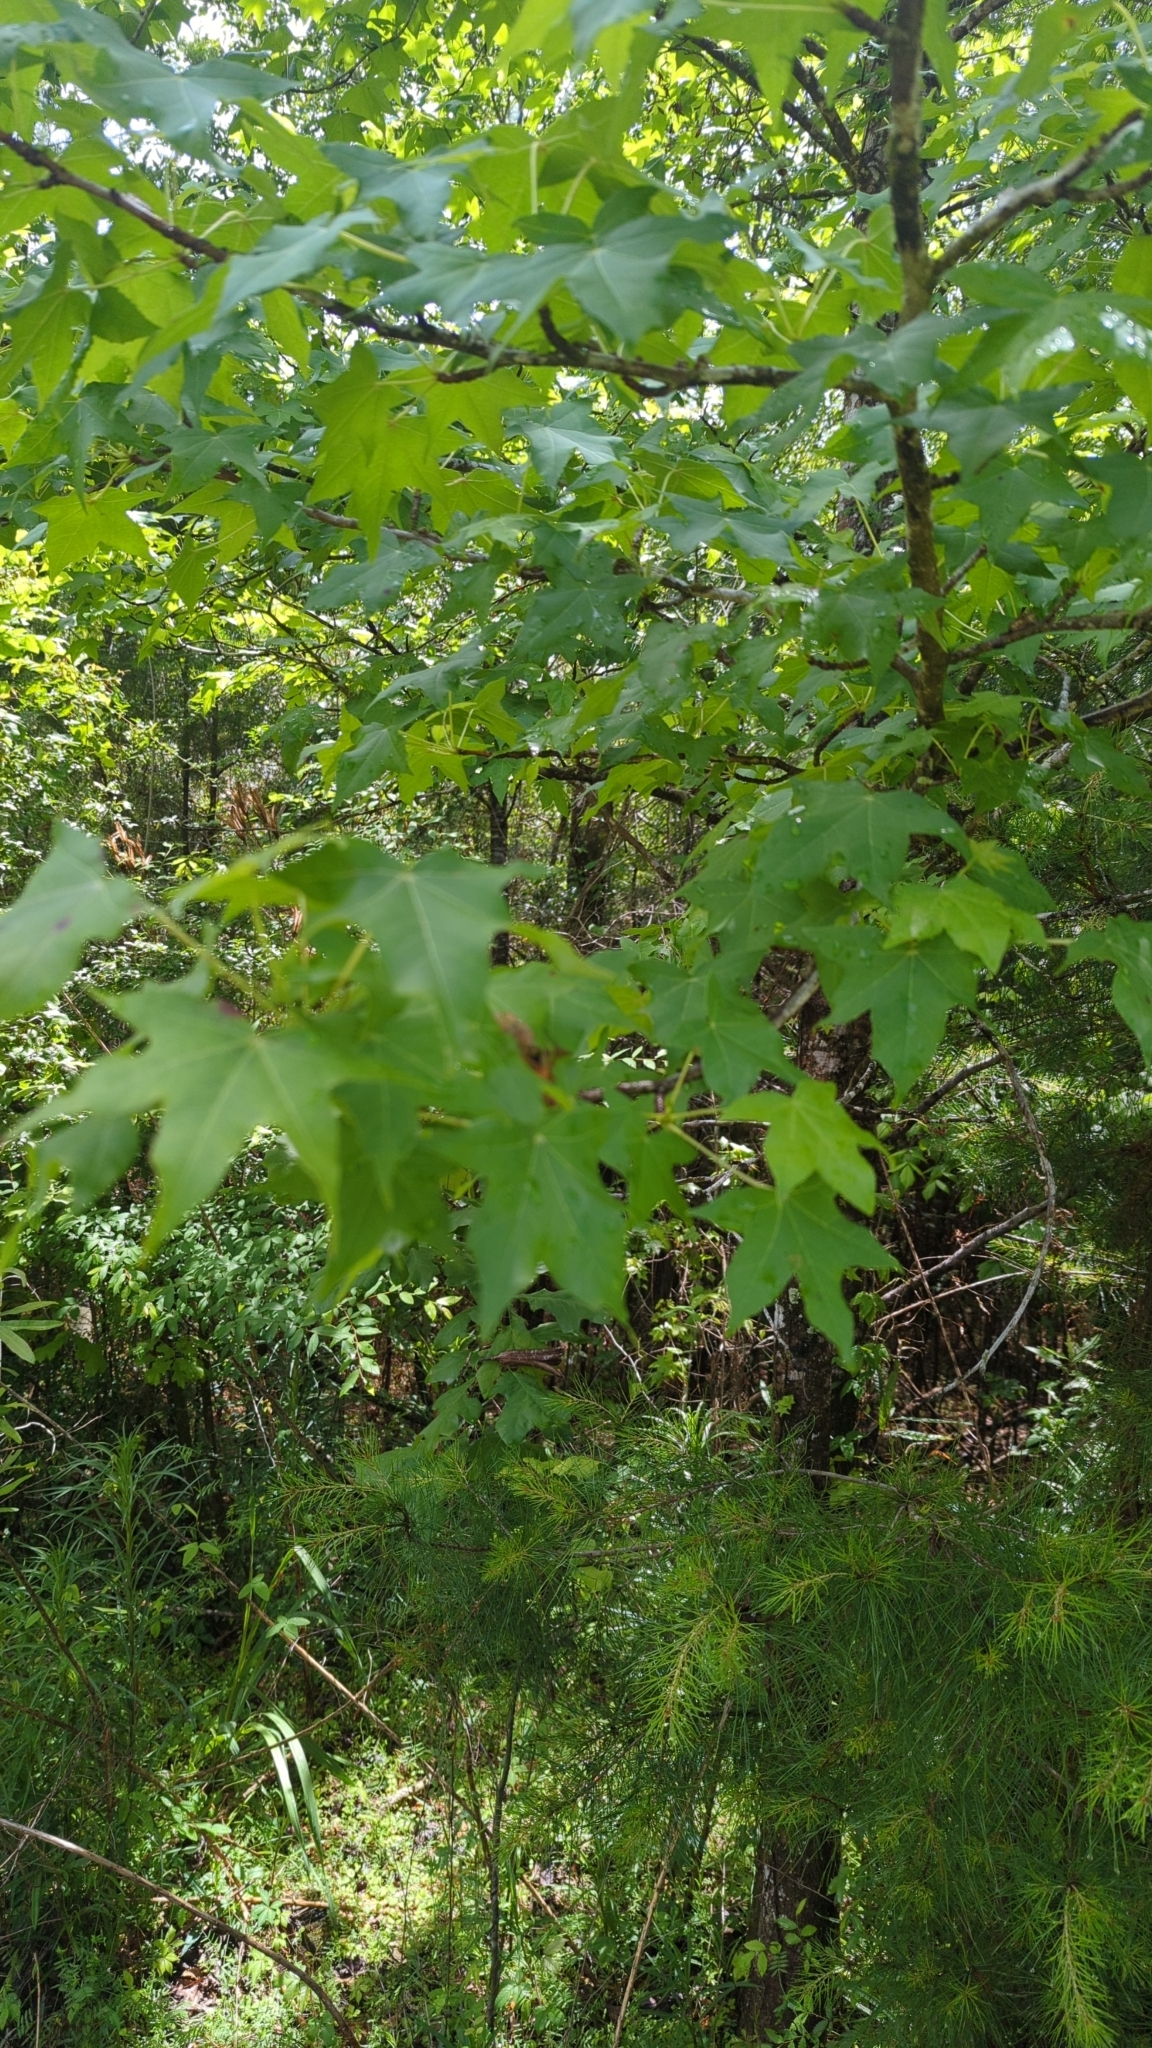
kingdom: Plantae
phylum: Tracheophyta
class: Magnoliopsida
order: Saxifragales
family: Altingiaceae
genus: Liquidambar
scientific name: Liquidambar styraciflua
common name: Sweet gum
